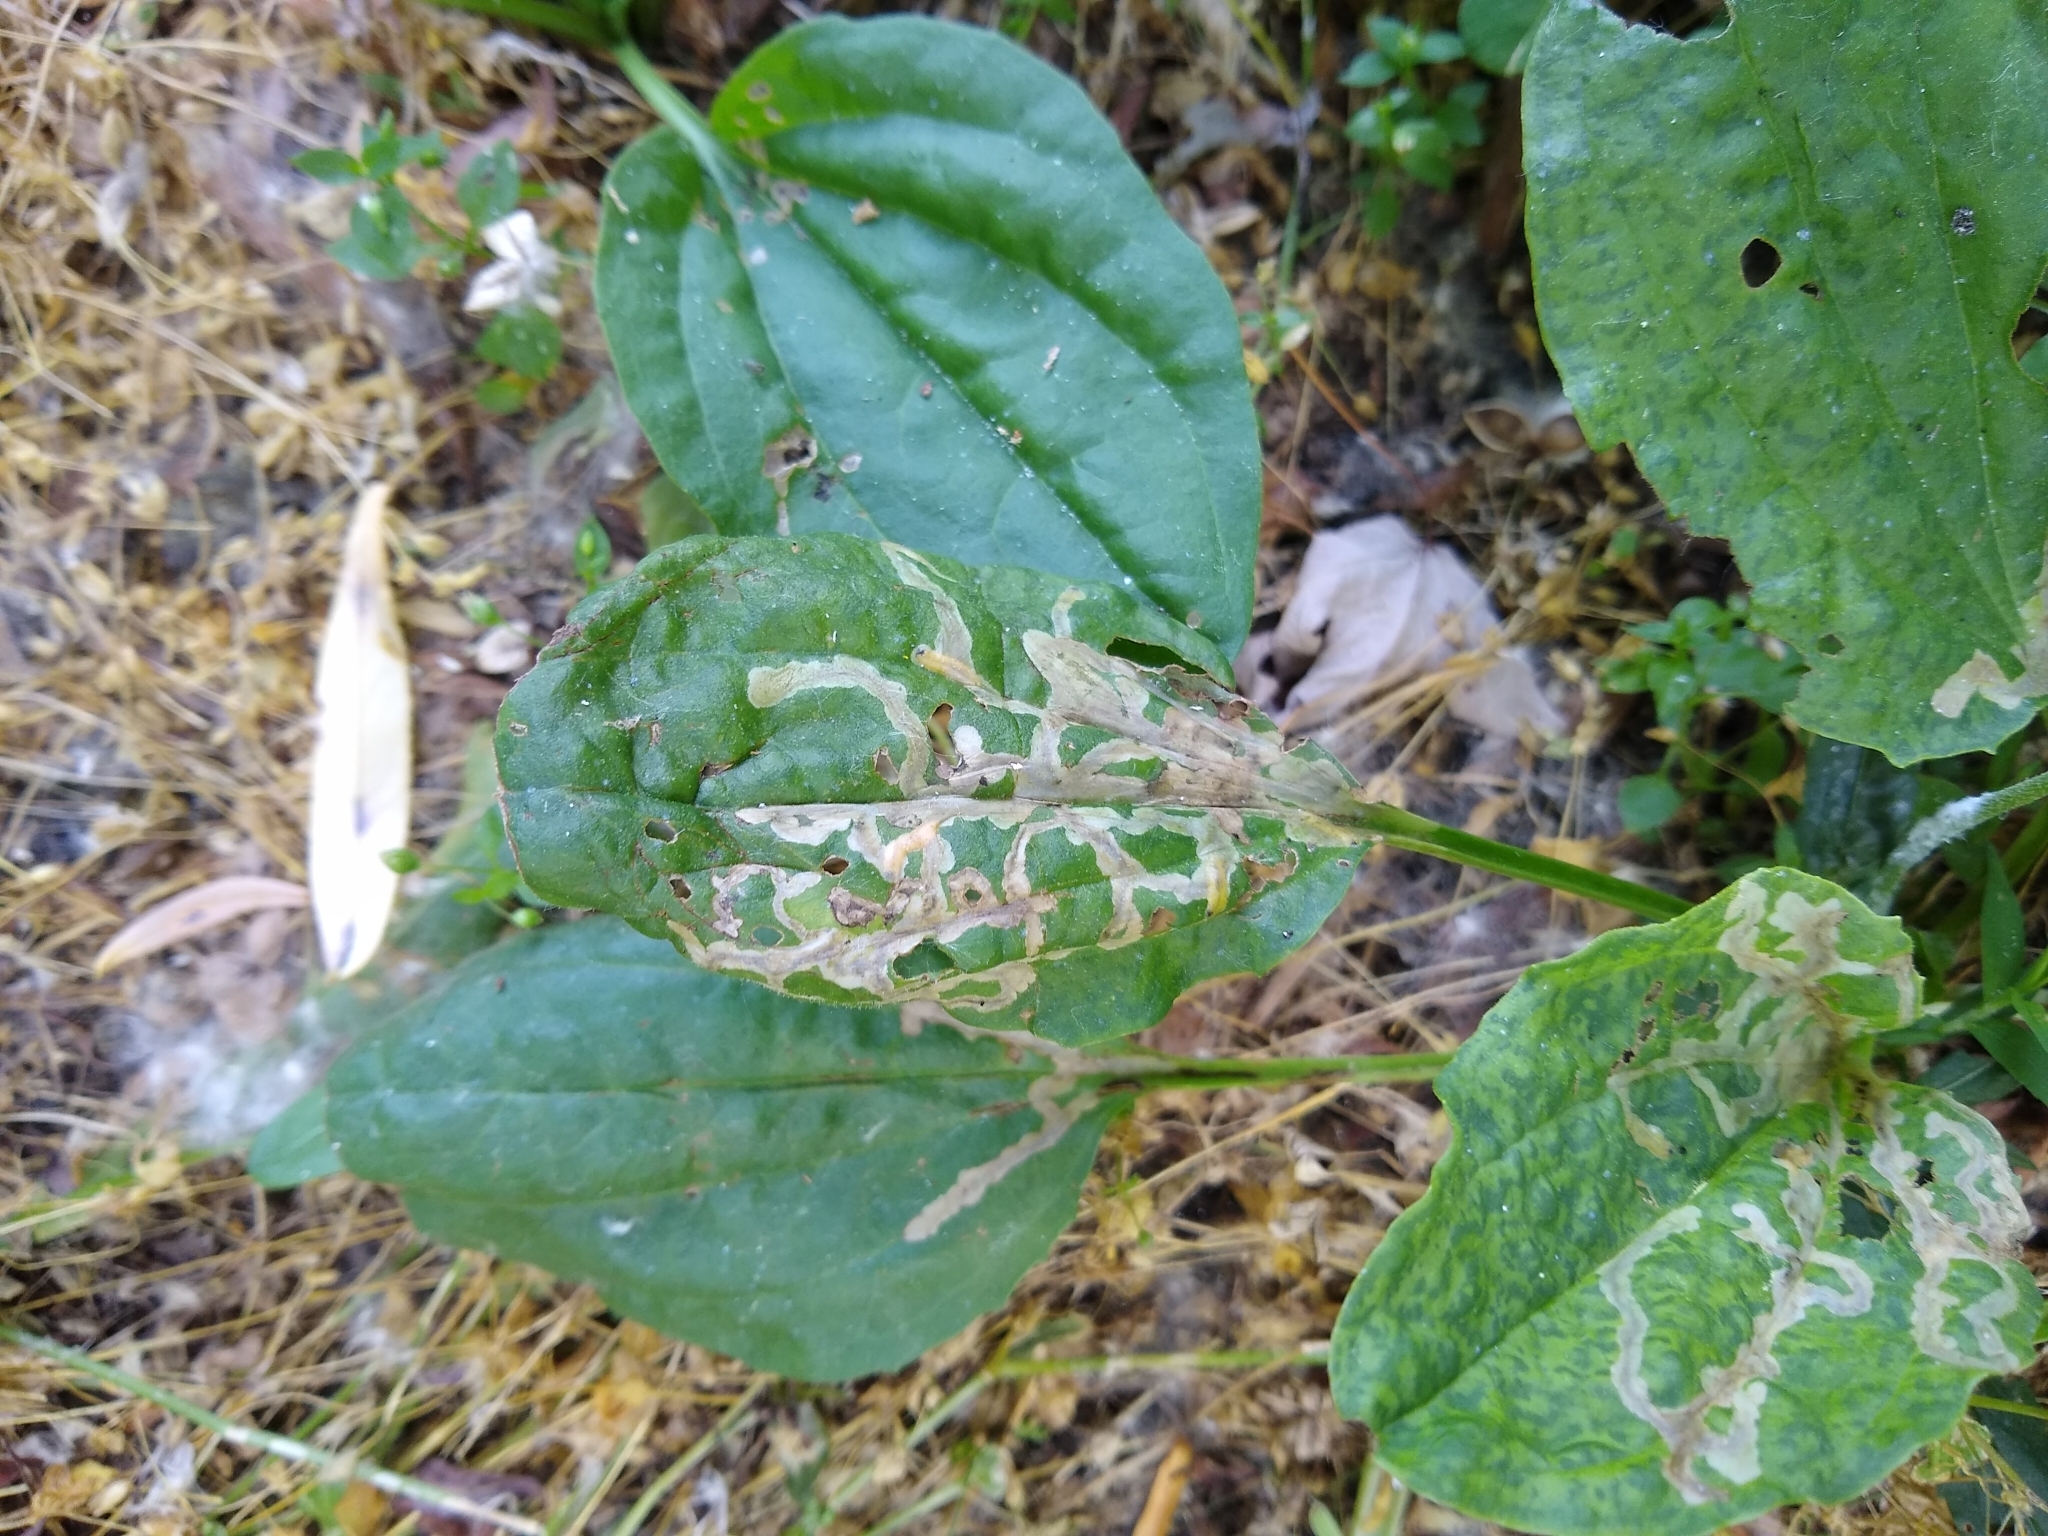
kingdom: Animalia
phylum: Arthropoda
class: Insecta
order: Coleoptera
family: Chrysomelidae
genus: Dibolia
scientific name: Dibolia borealis
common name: Northern plantain flea beetle
